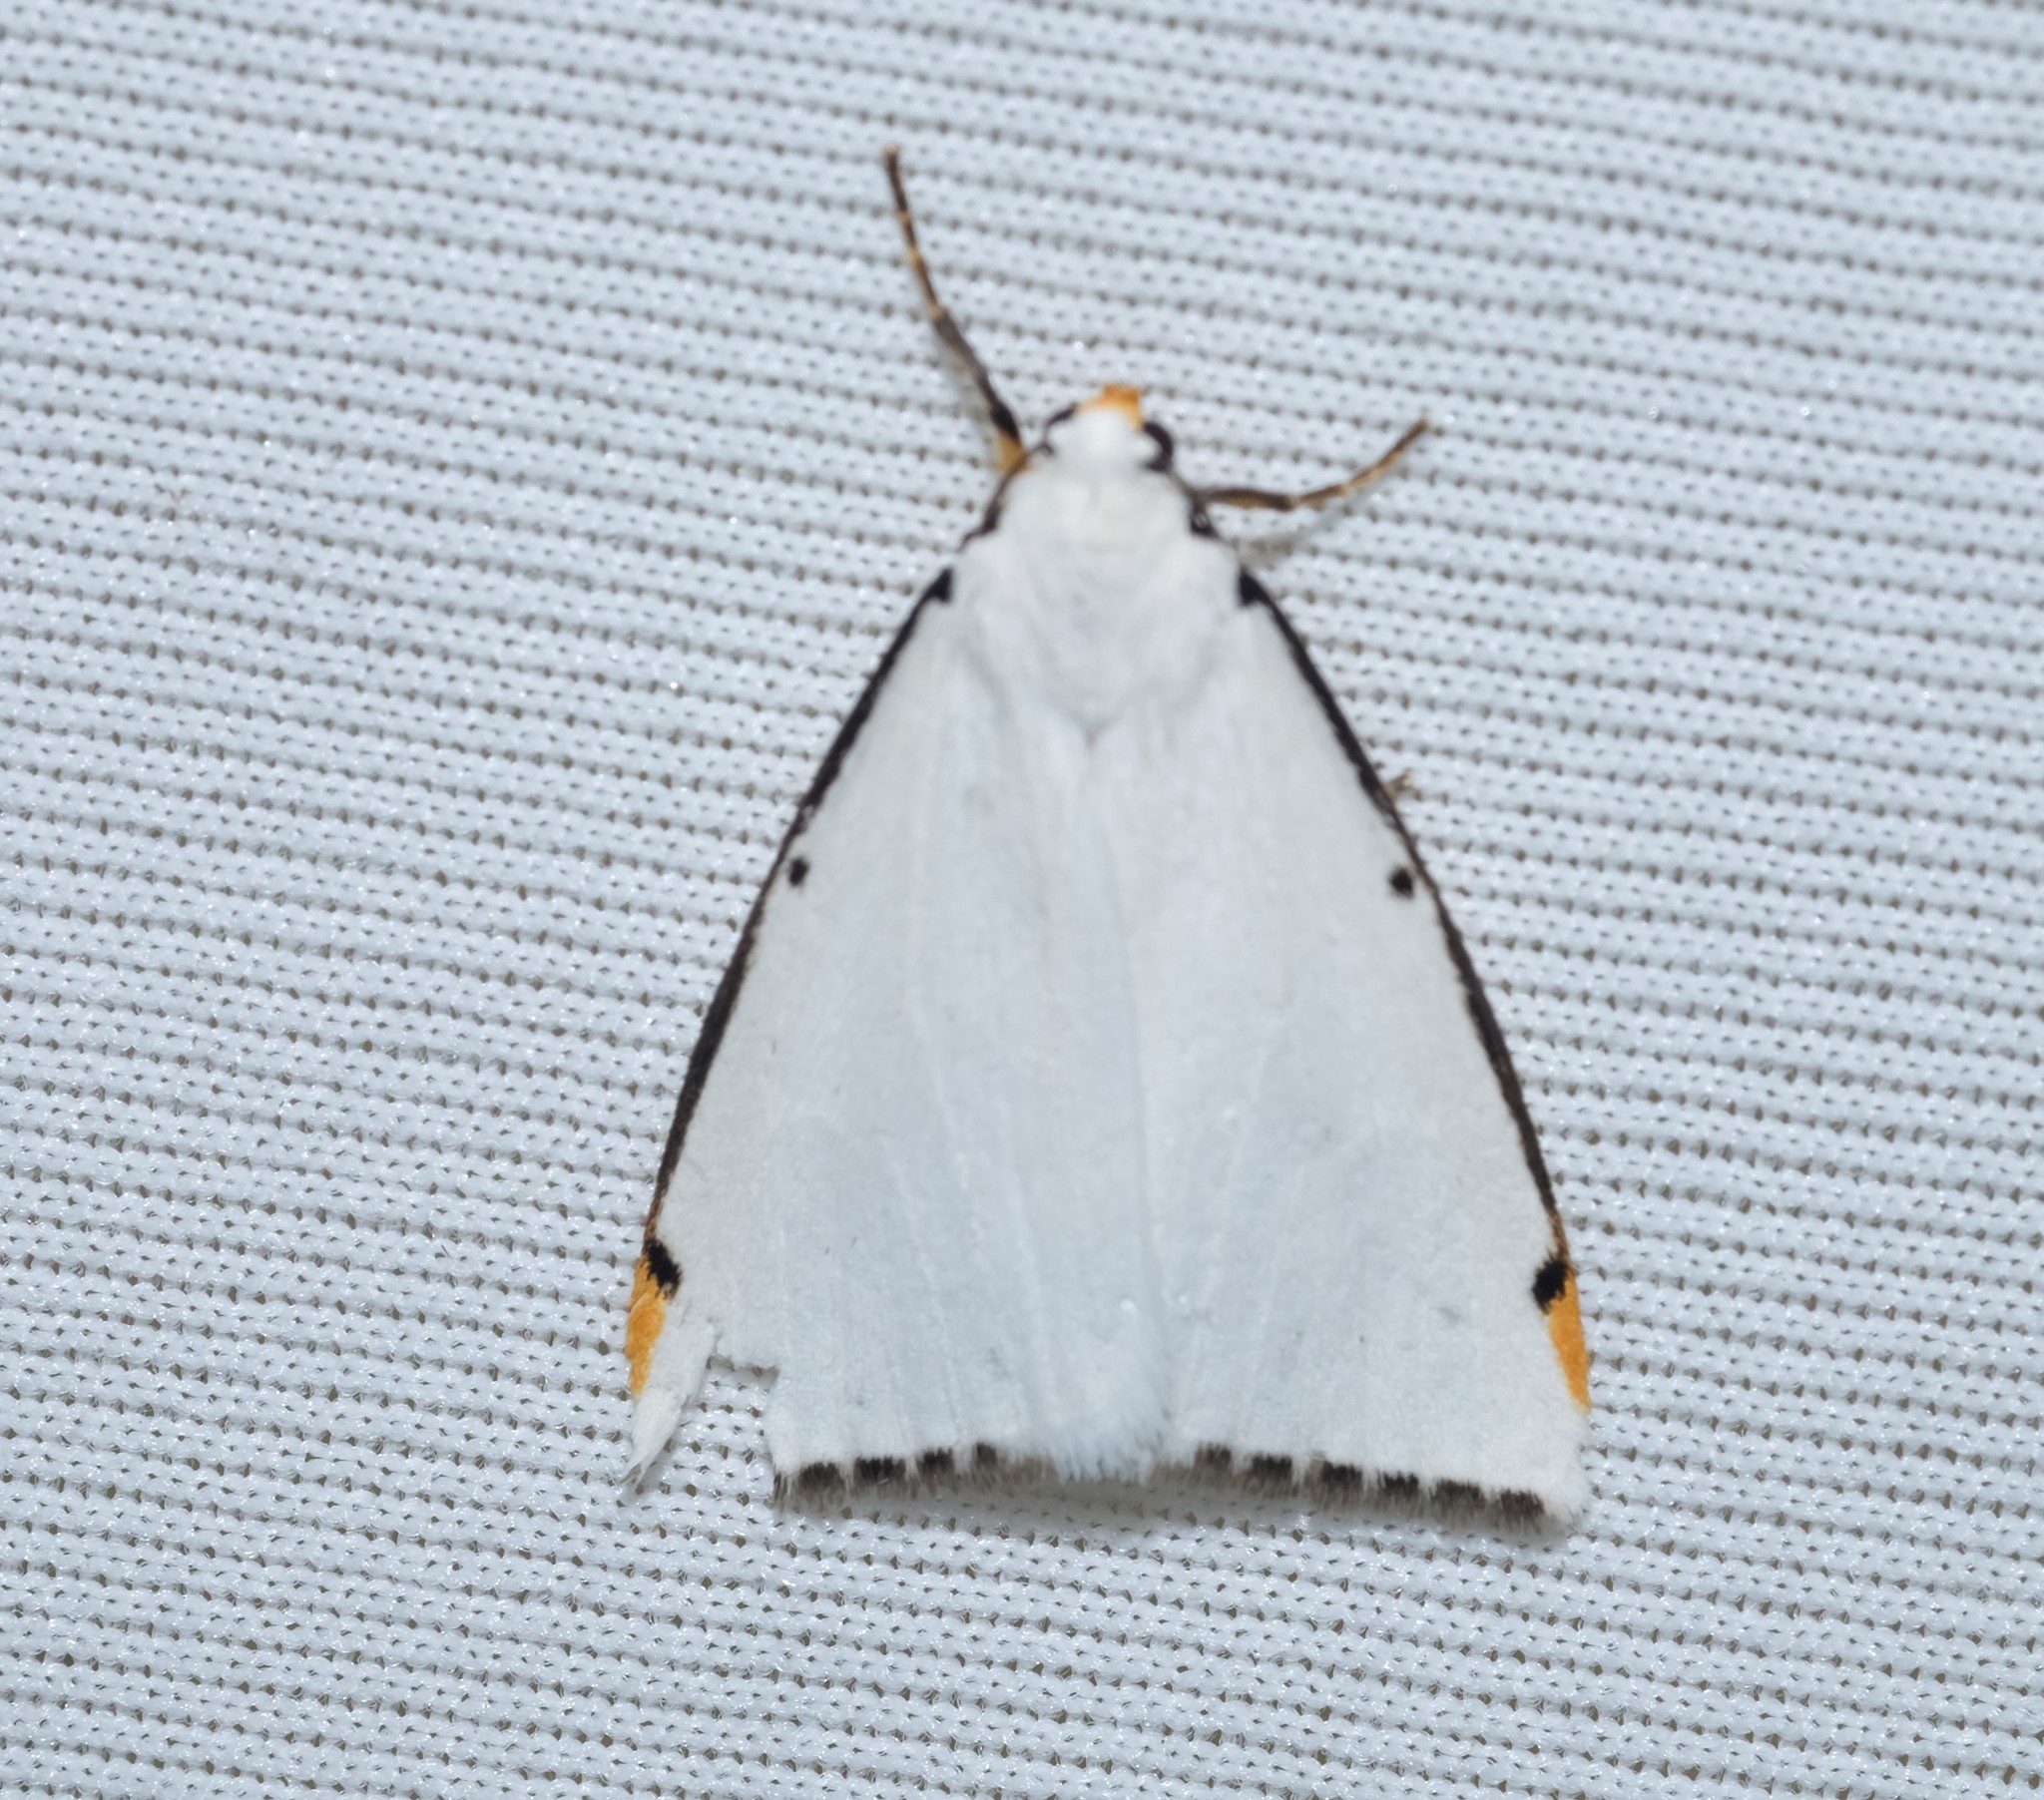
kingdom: Animalia
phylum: Arthropoda
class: Insecta
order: Lepidoptera
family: Erebidae
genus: Termessa
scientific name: Termessa nivosa
